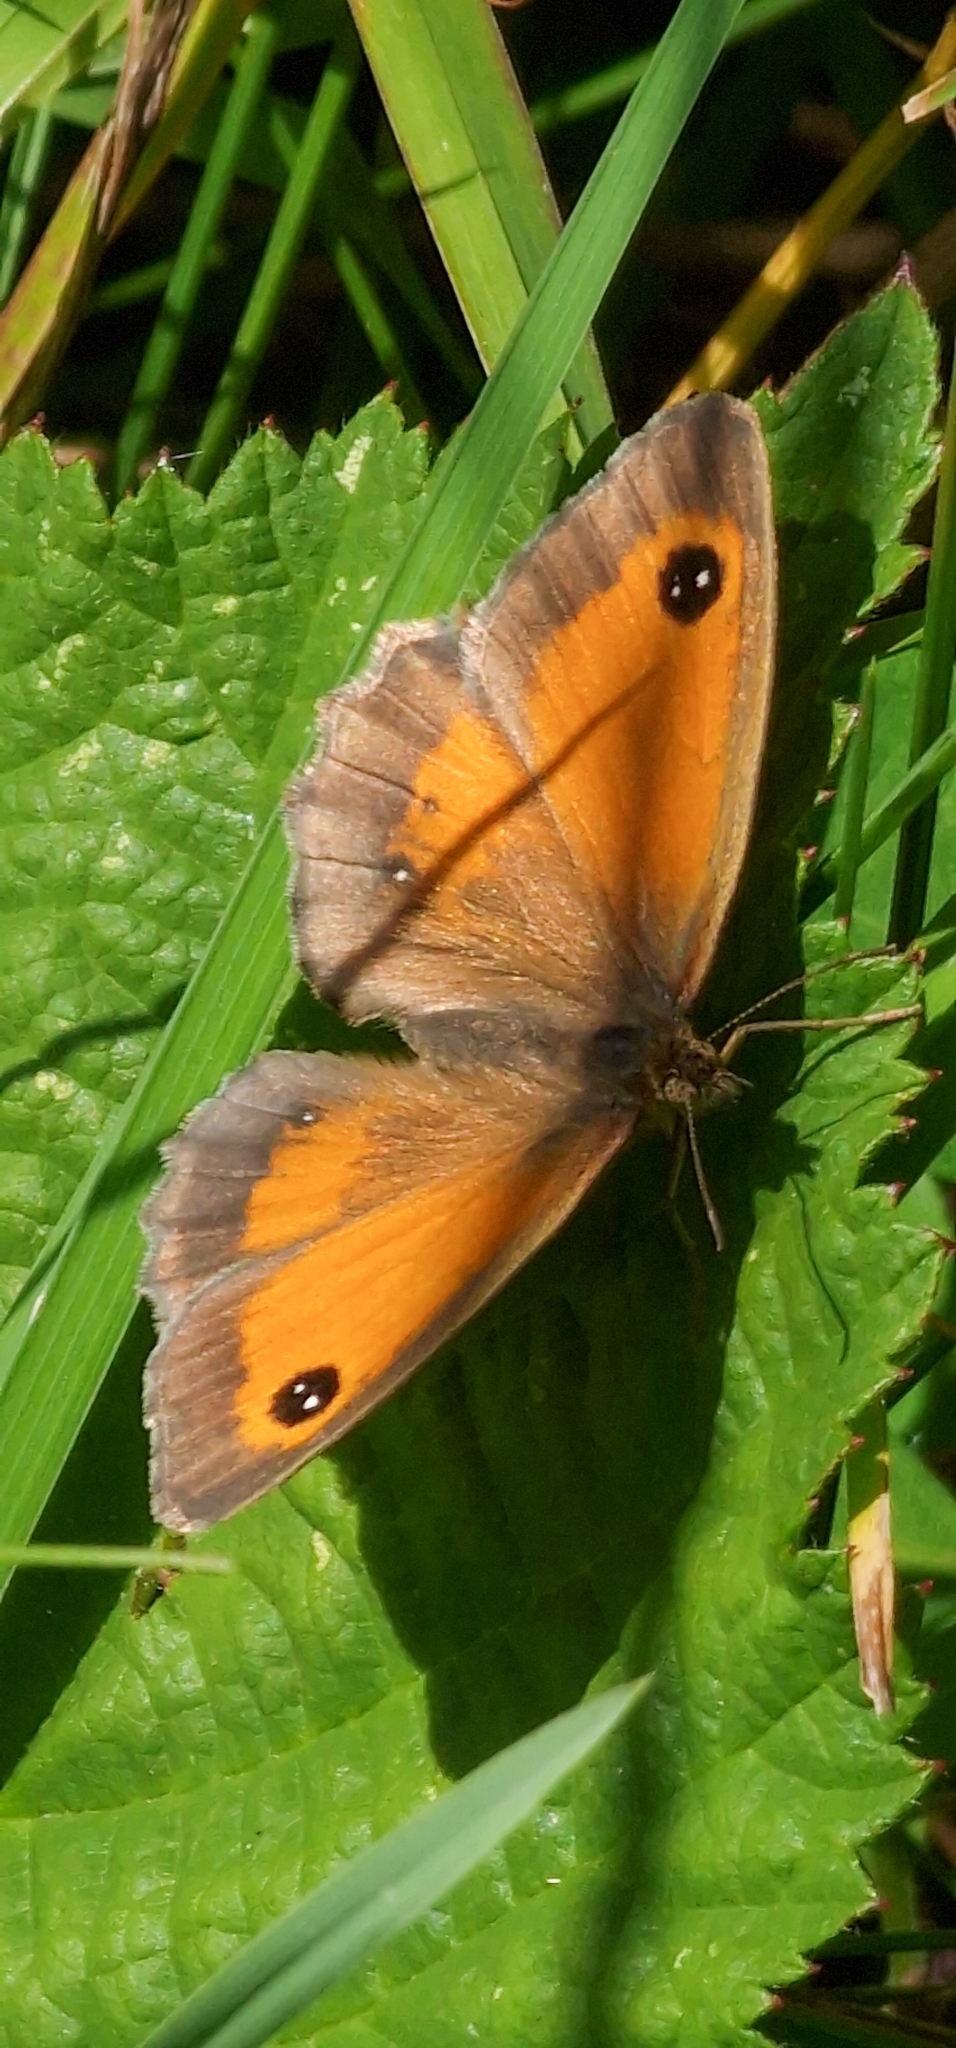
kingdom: Animalia
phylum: Arthropoda
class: Insecta
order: Lepidoptera
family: Nymphalidae
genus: Pyronia
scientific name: Pyronia tithonus
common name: Gatekeeper
